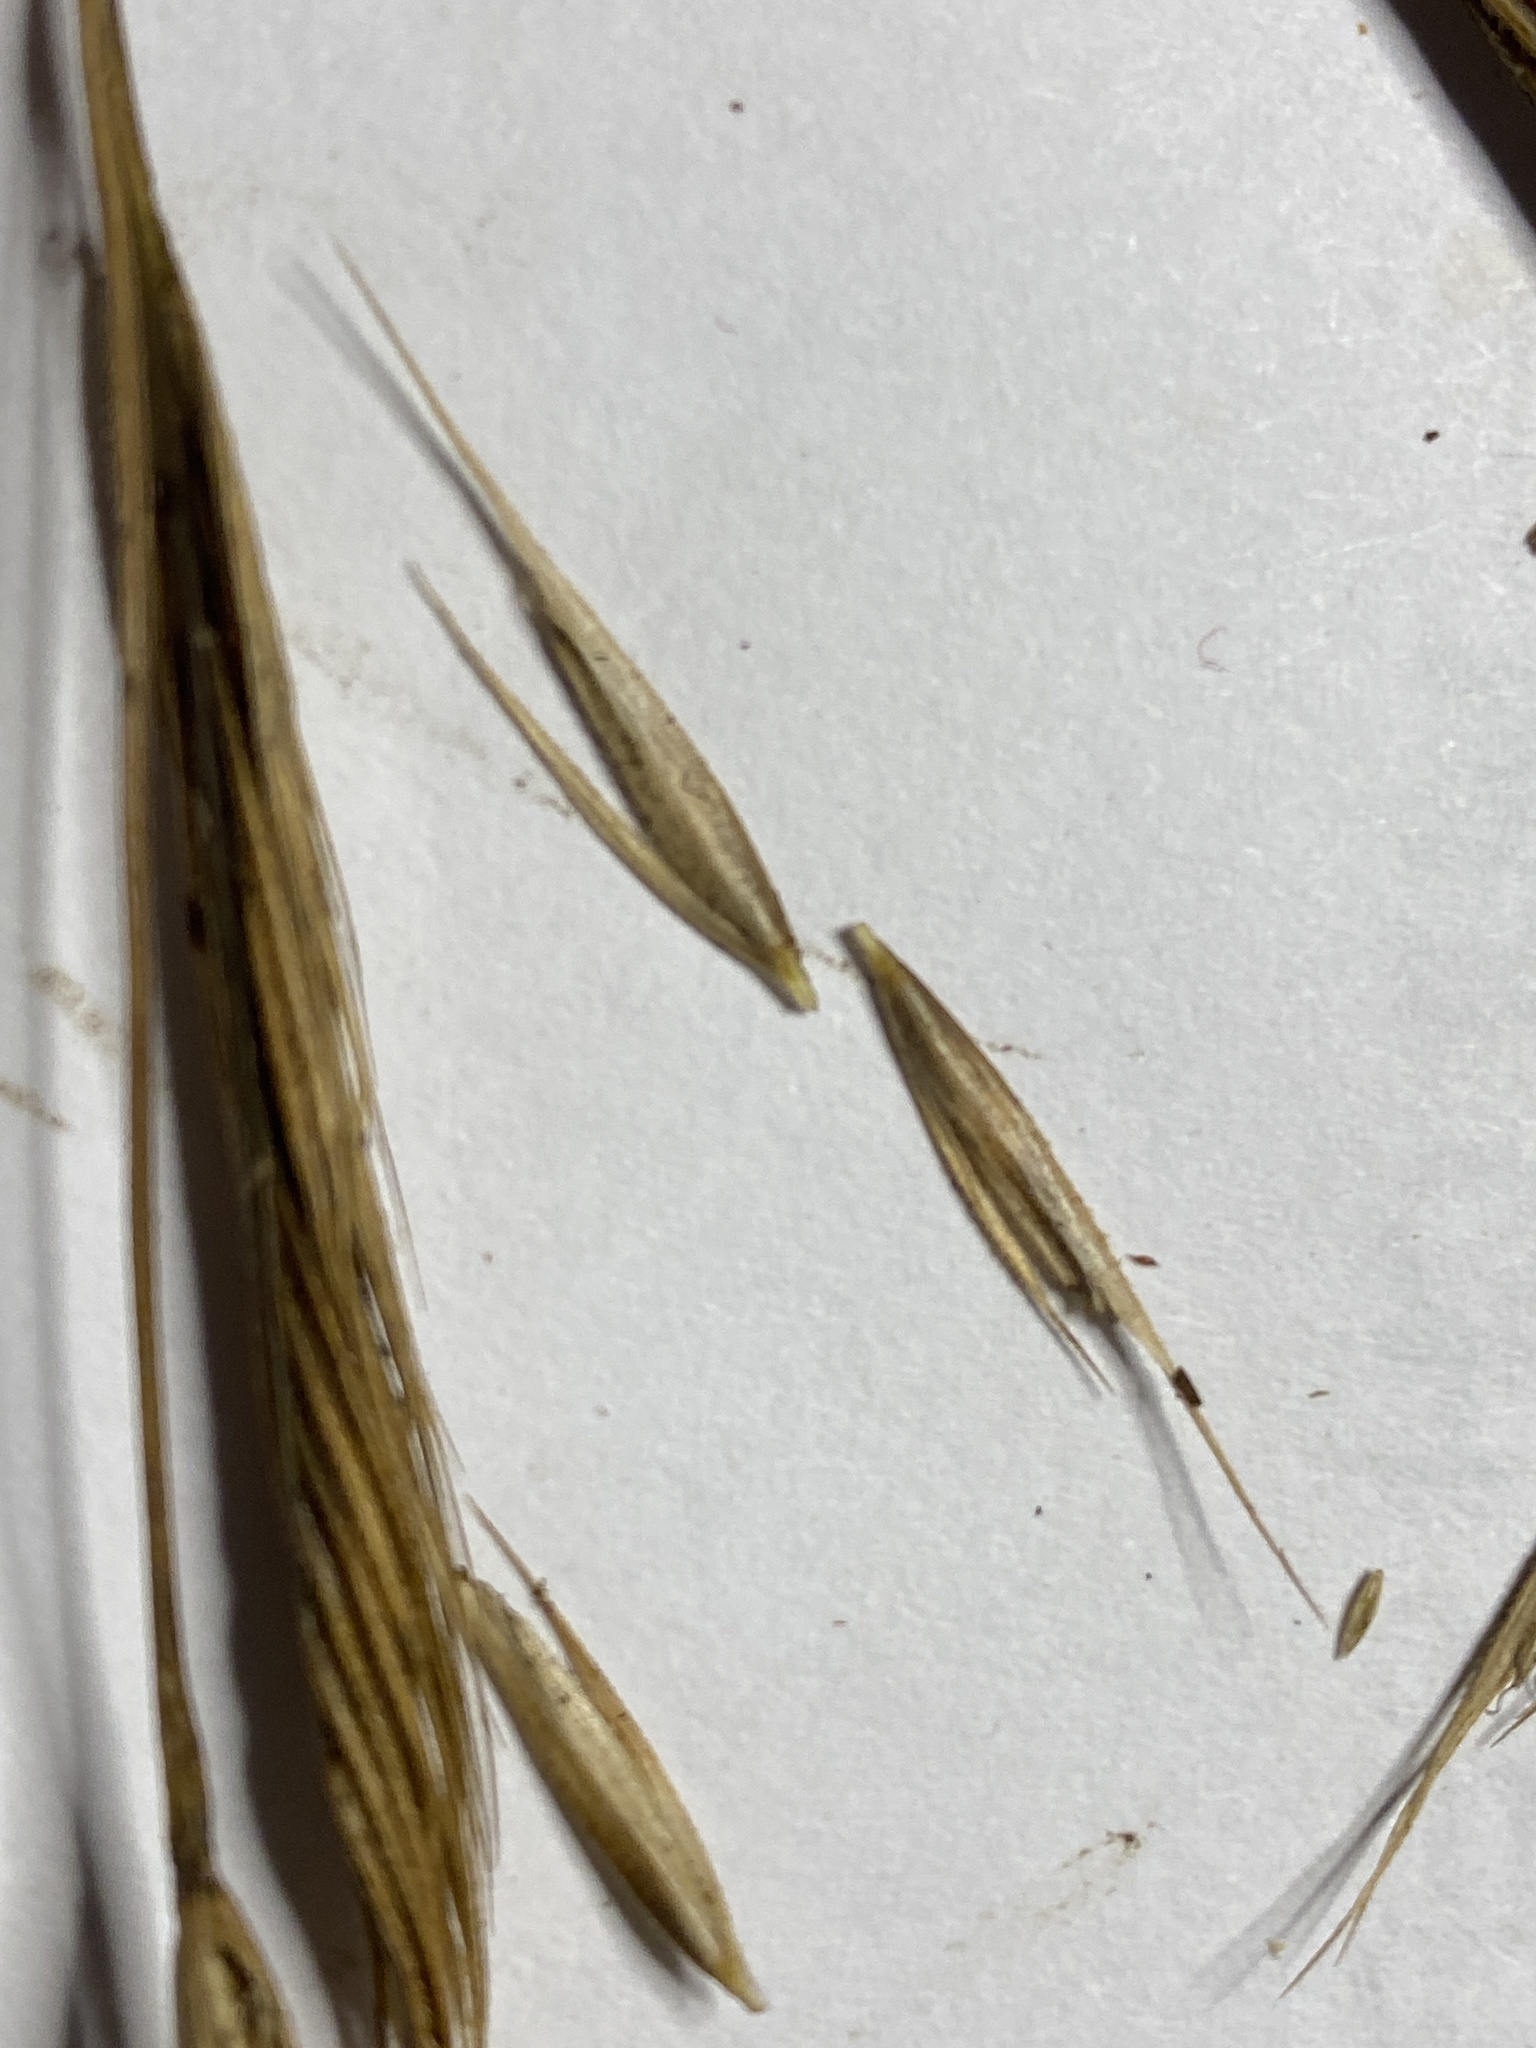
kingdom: Plantae
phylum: Tracheophyta
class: Liliopsida
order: Poales
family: Poaceae
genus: Sporobolus
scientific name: Sporobolus michauxianus
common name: Freshwater cordgrass
